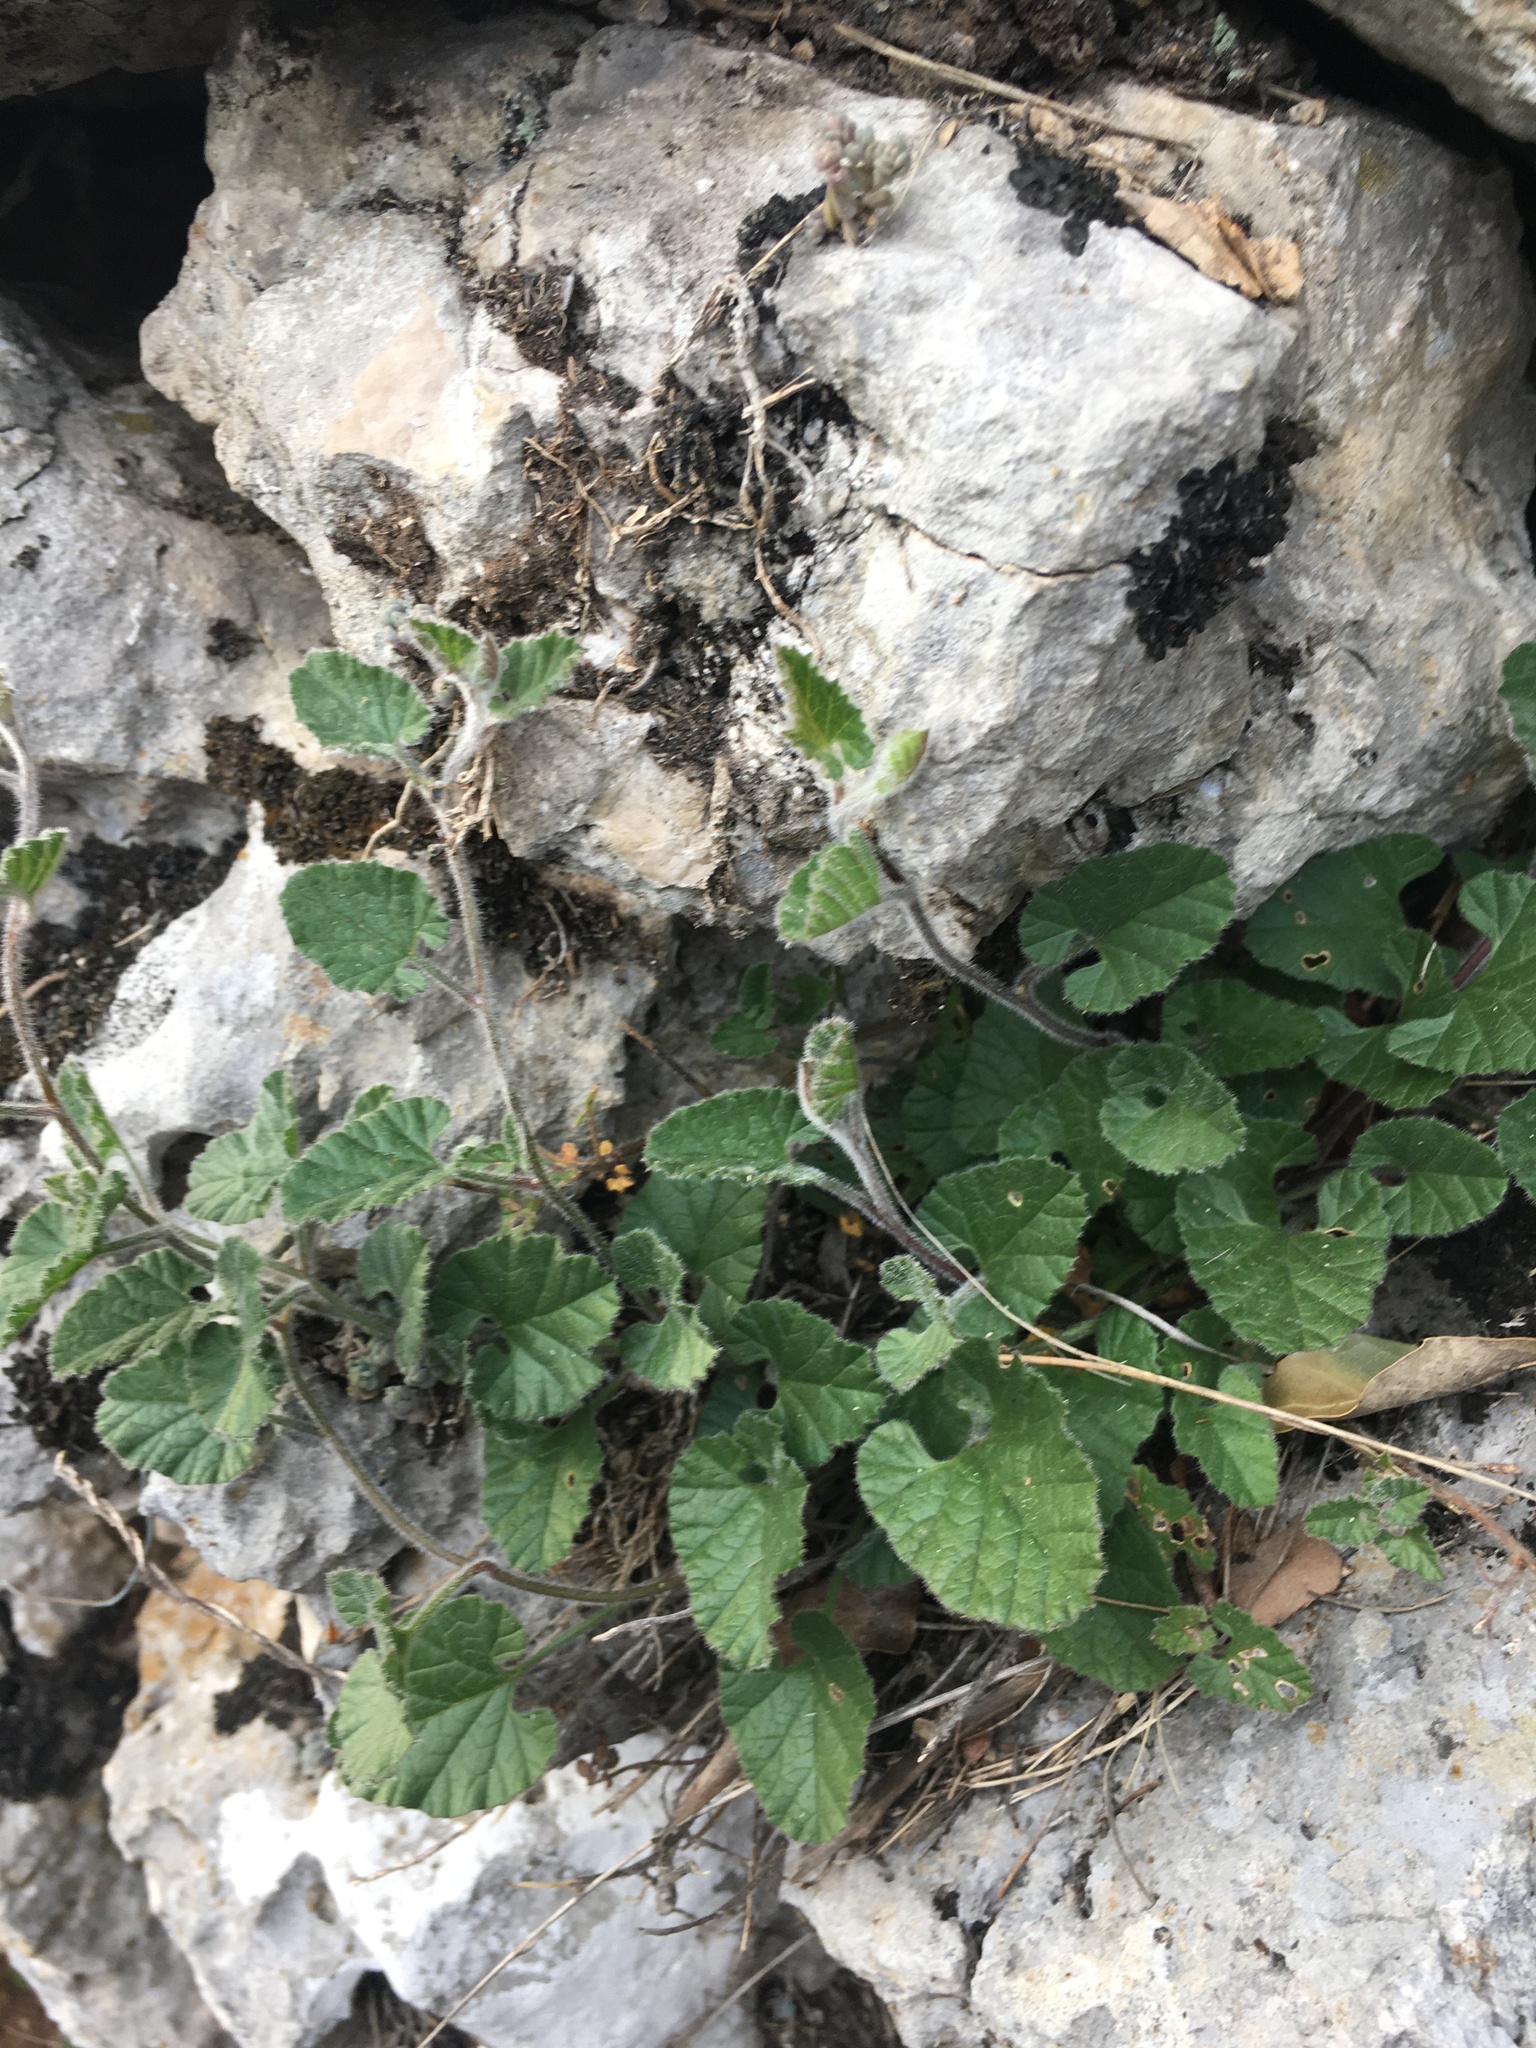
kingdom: Plantae
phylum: Tracheophyta
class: Magnoliopsida
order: Solanales
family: Convolvulaceae
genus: Convolvulus
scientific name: Convolvulus althaeoides
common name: Mallow bindweed
